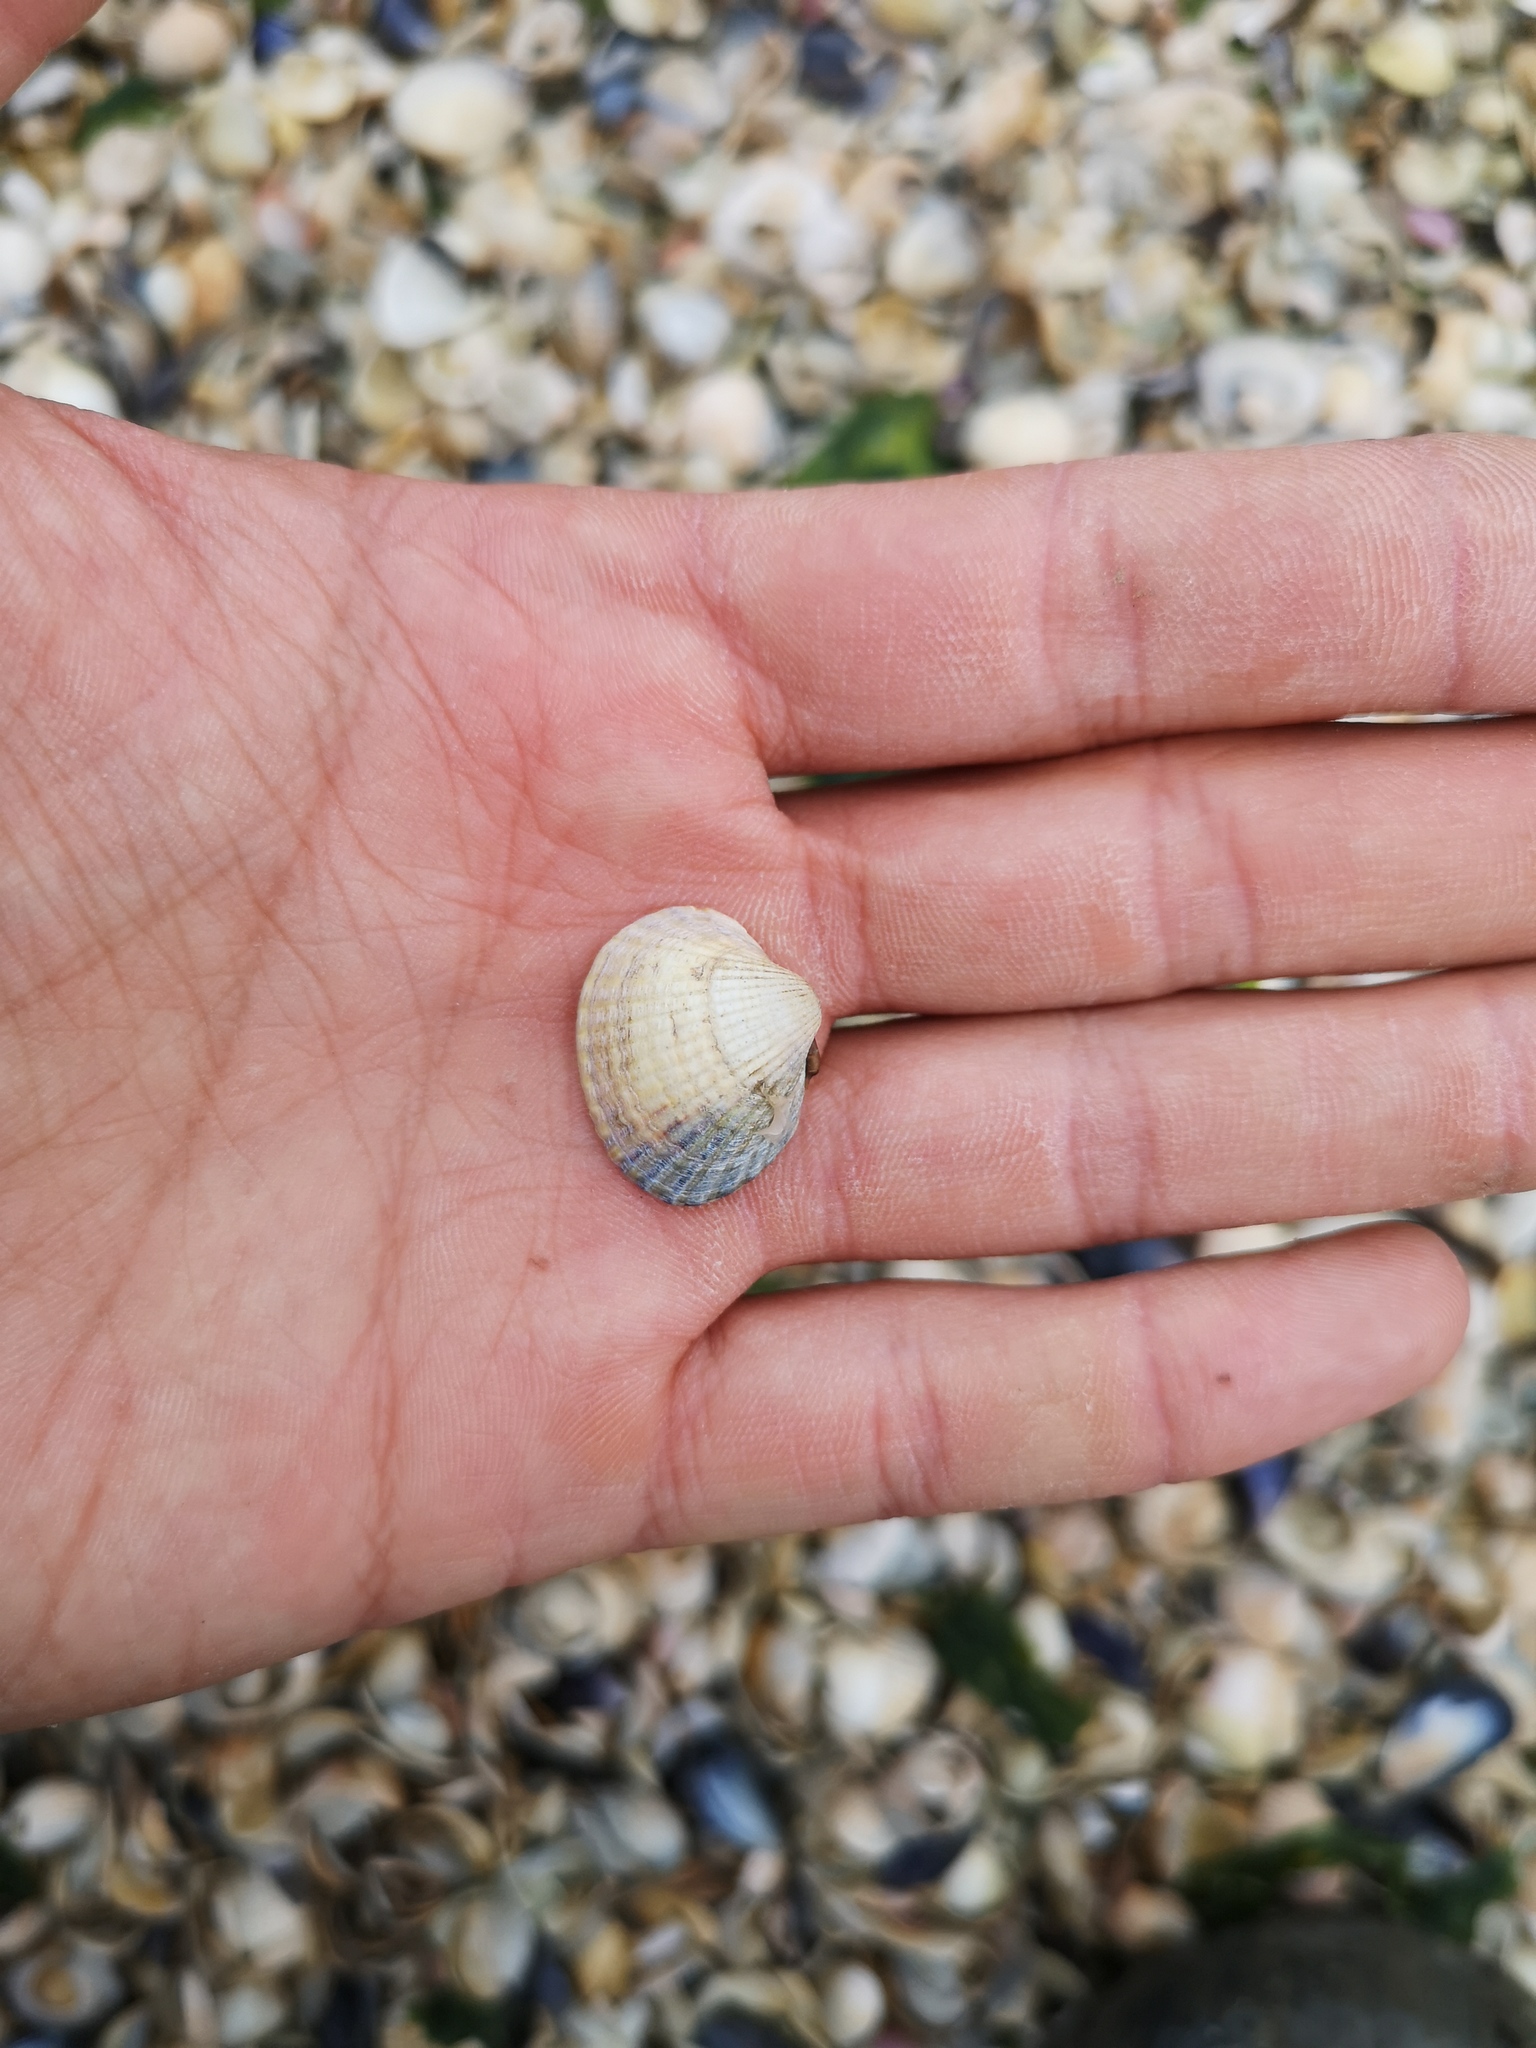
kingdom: Animalia
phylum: Mollusca
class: Bivalvia
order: Cardiida
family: Cardiidae
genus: Cerastoderma
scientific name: Cerastoderma edule
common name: Common cockle
